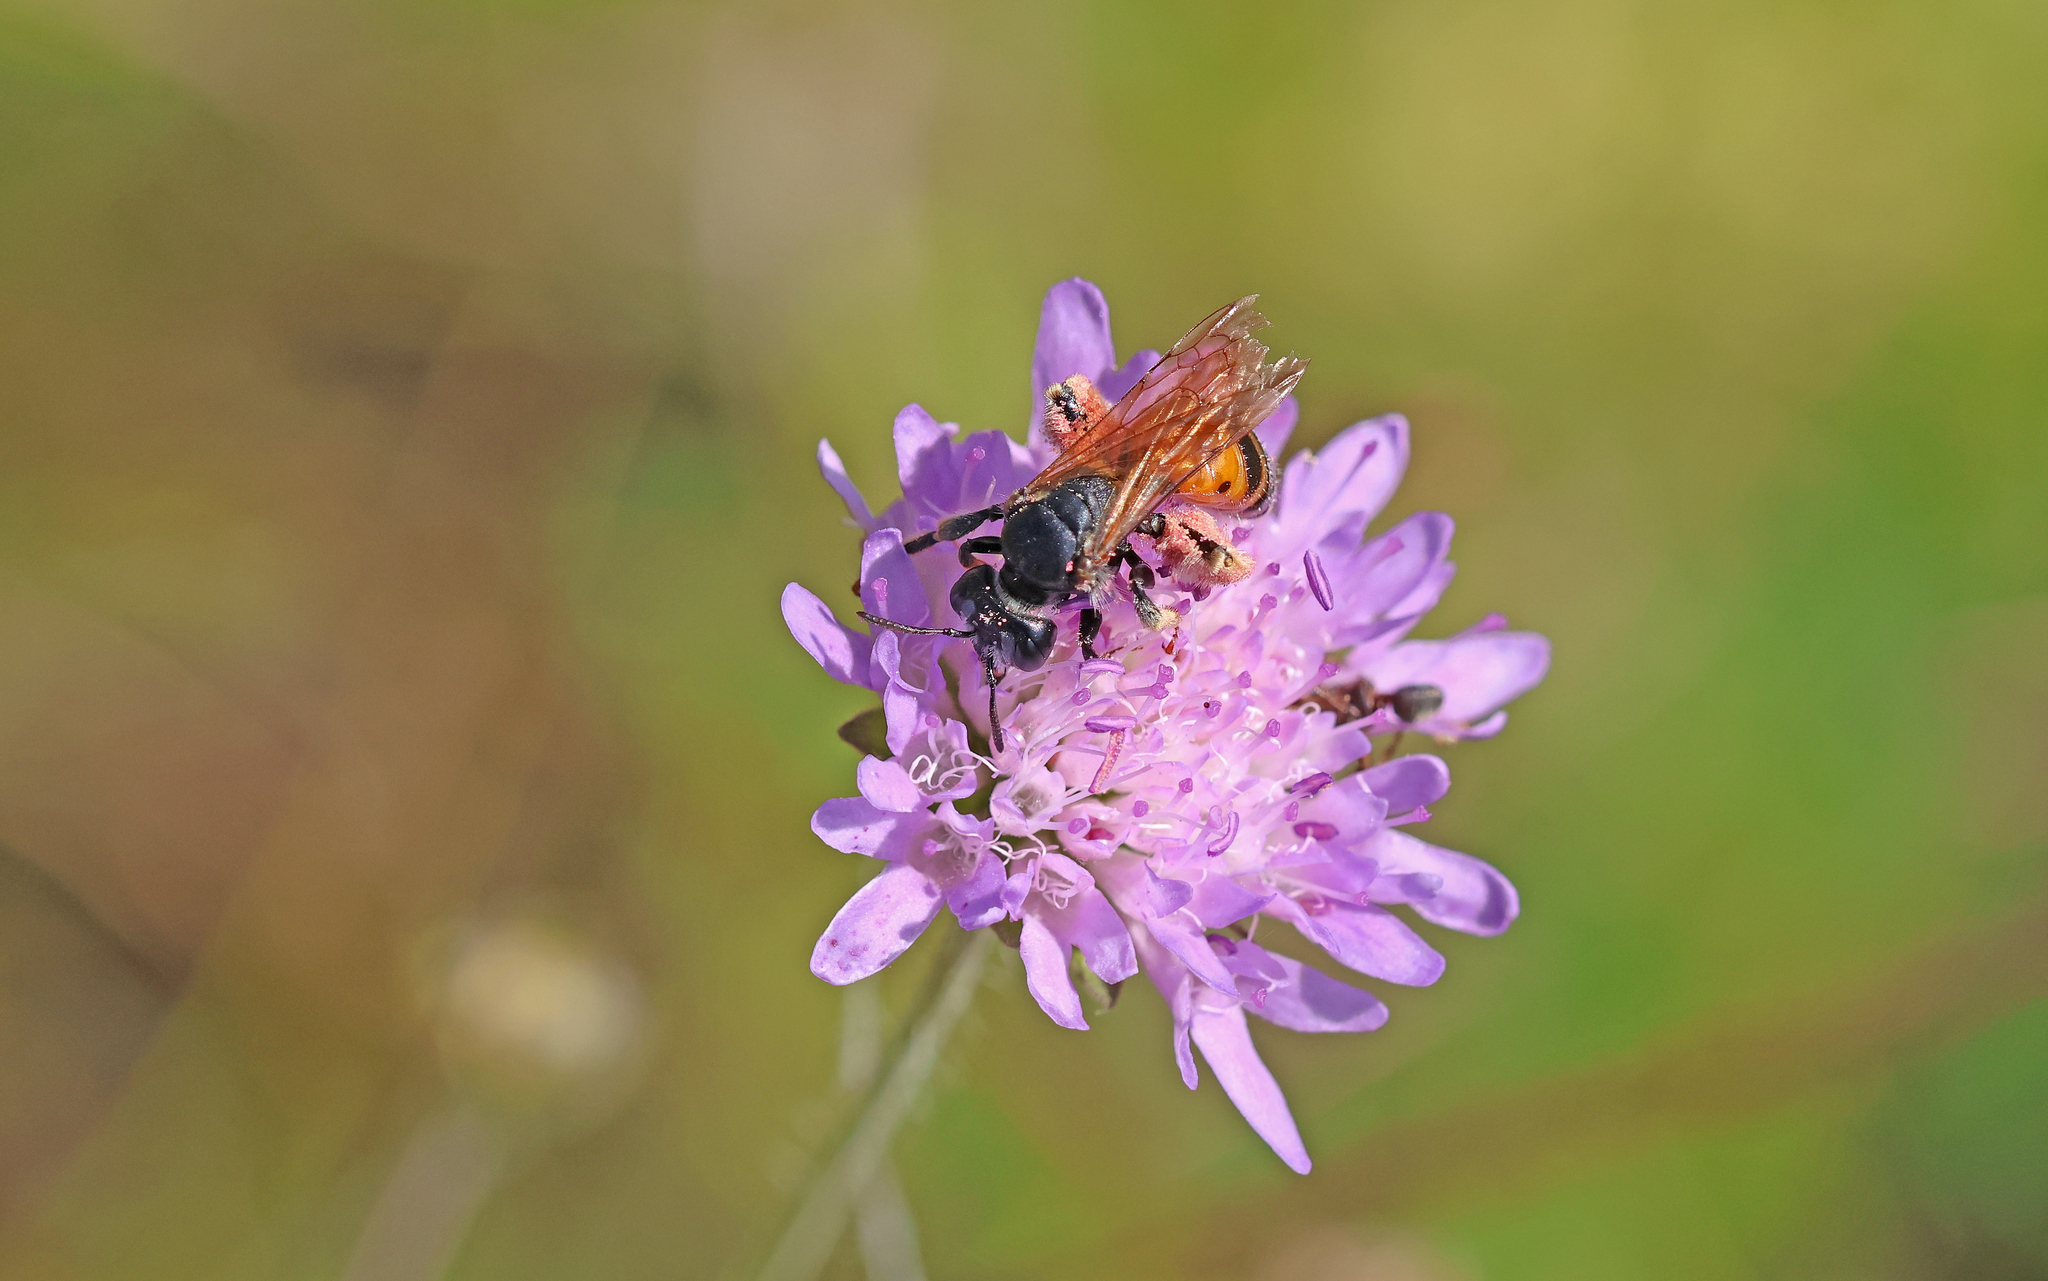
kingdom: Animalia
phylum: Arthropoda
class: Insecta
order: Hymenoptera
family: Andrenidae
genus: Andrena
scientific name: Andrena hattorfiana
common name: Large scabious mining bee
